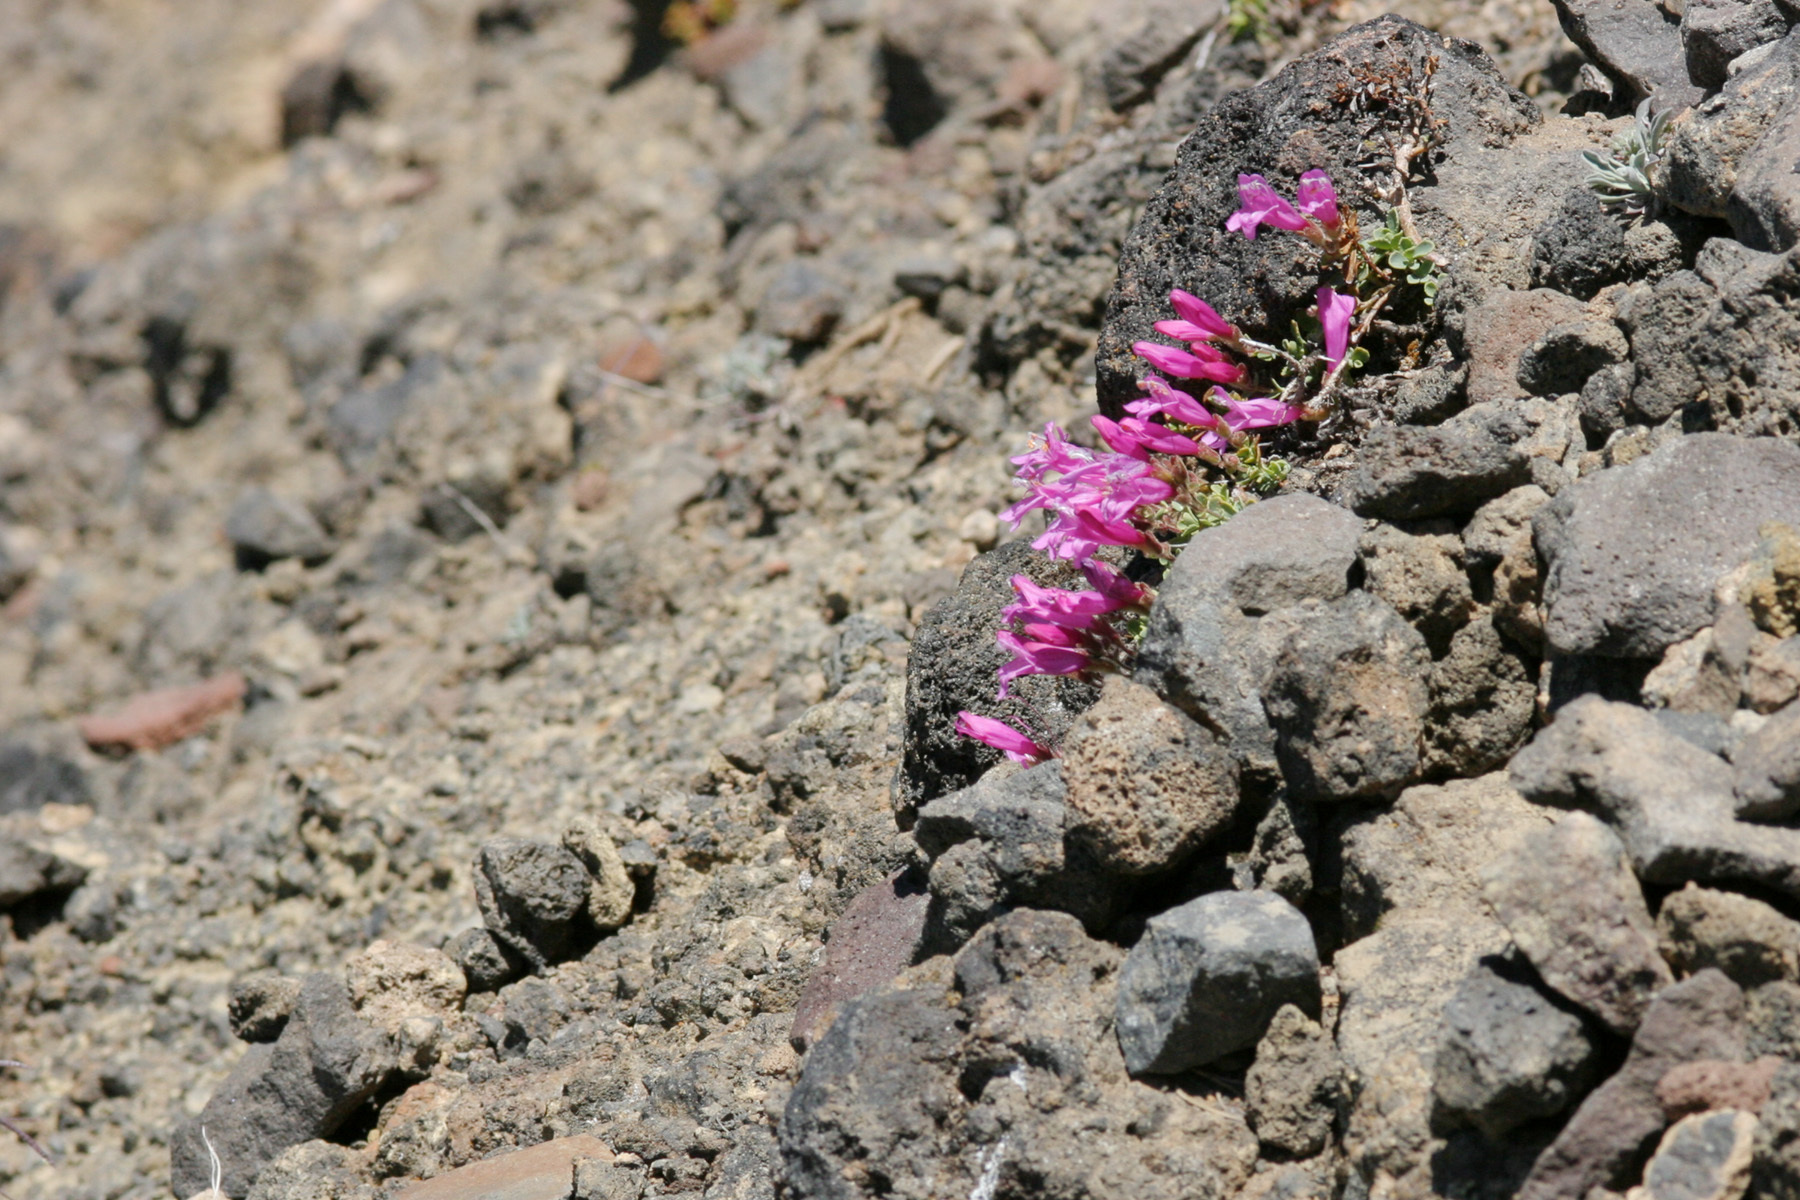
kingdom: Plantae
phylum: Tracheophyta
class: Magnoliopsida
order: Lamiales
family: Plantaginaceae
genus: Penstemon
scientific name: Penstemon rupicola
